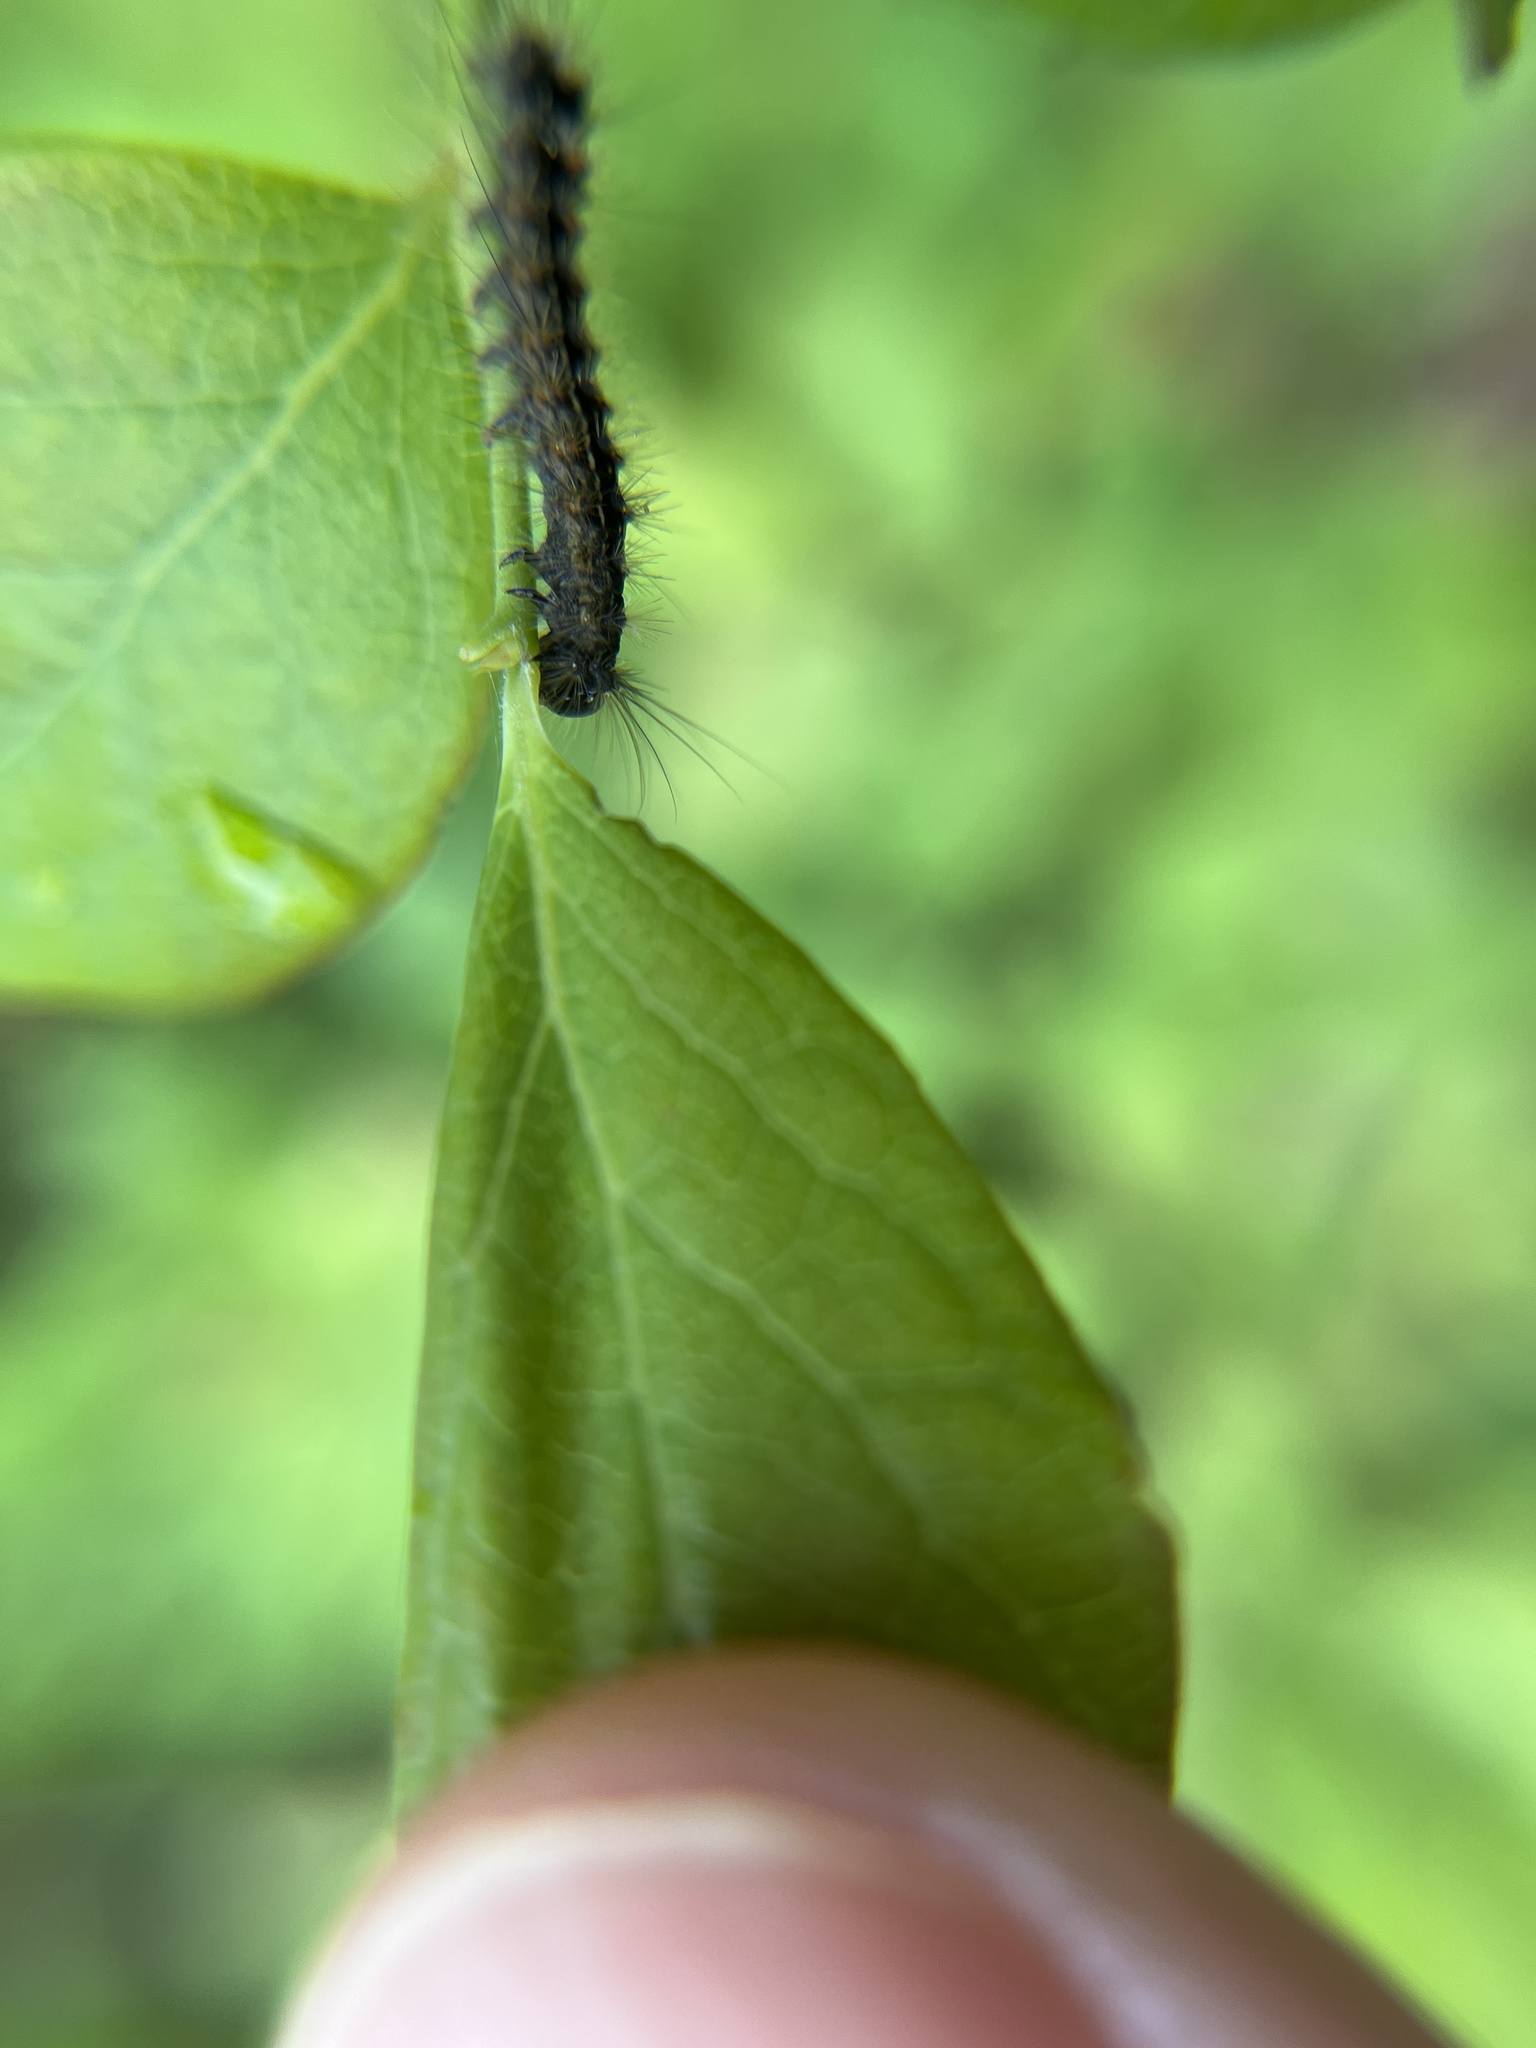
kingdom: Animalia
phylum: Arthropoda
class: Insecta
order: Lepidoptera
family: Erebidae
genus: Lymantria
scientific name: Lymantria dispar
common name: Gypsy moth
